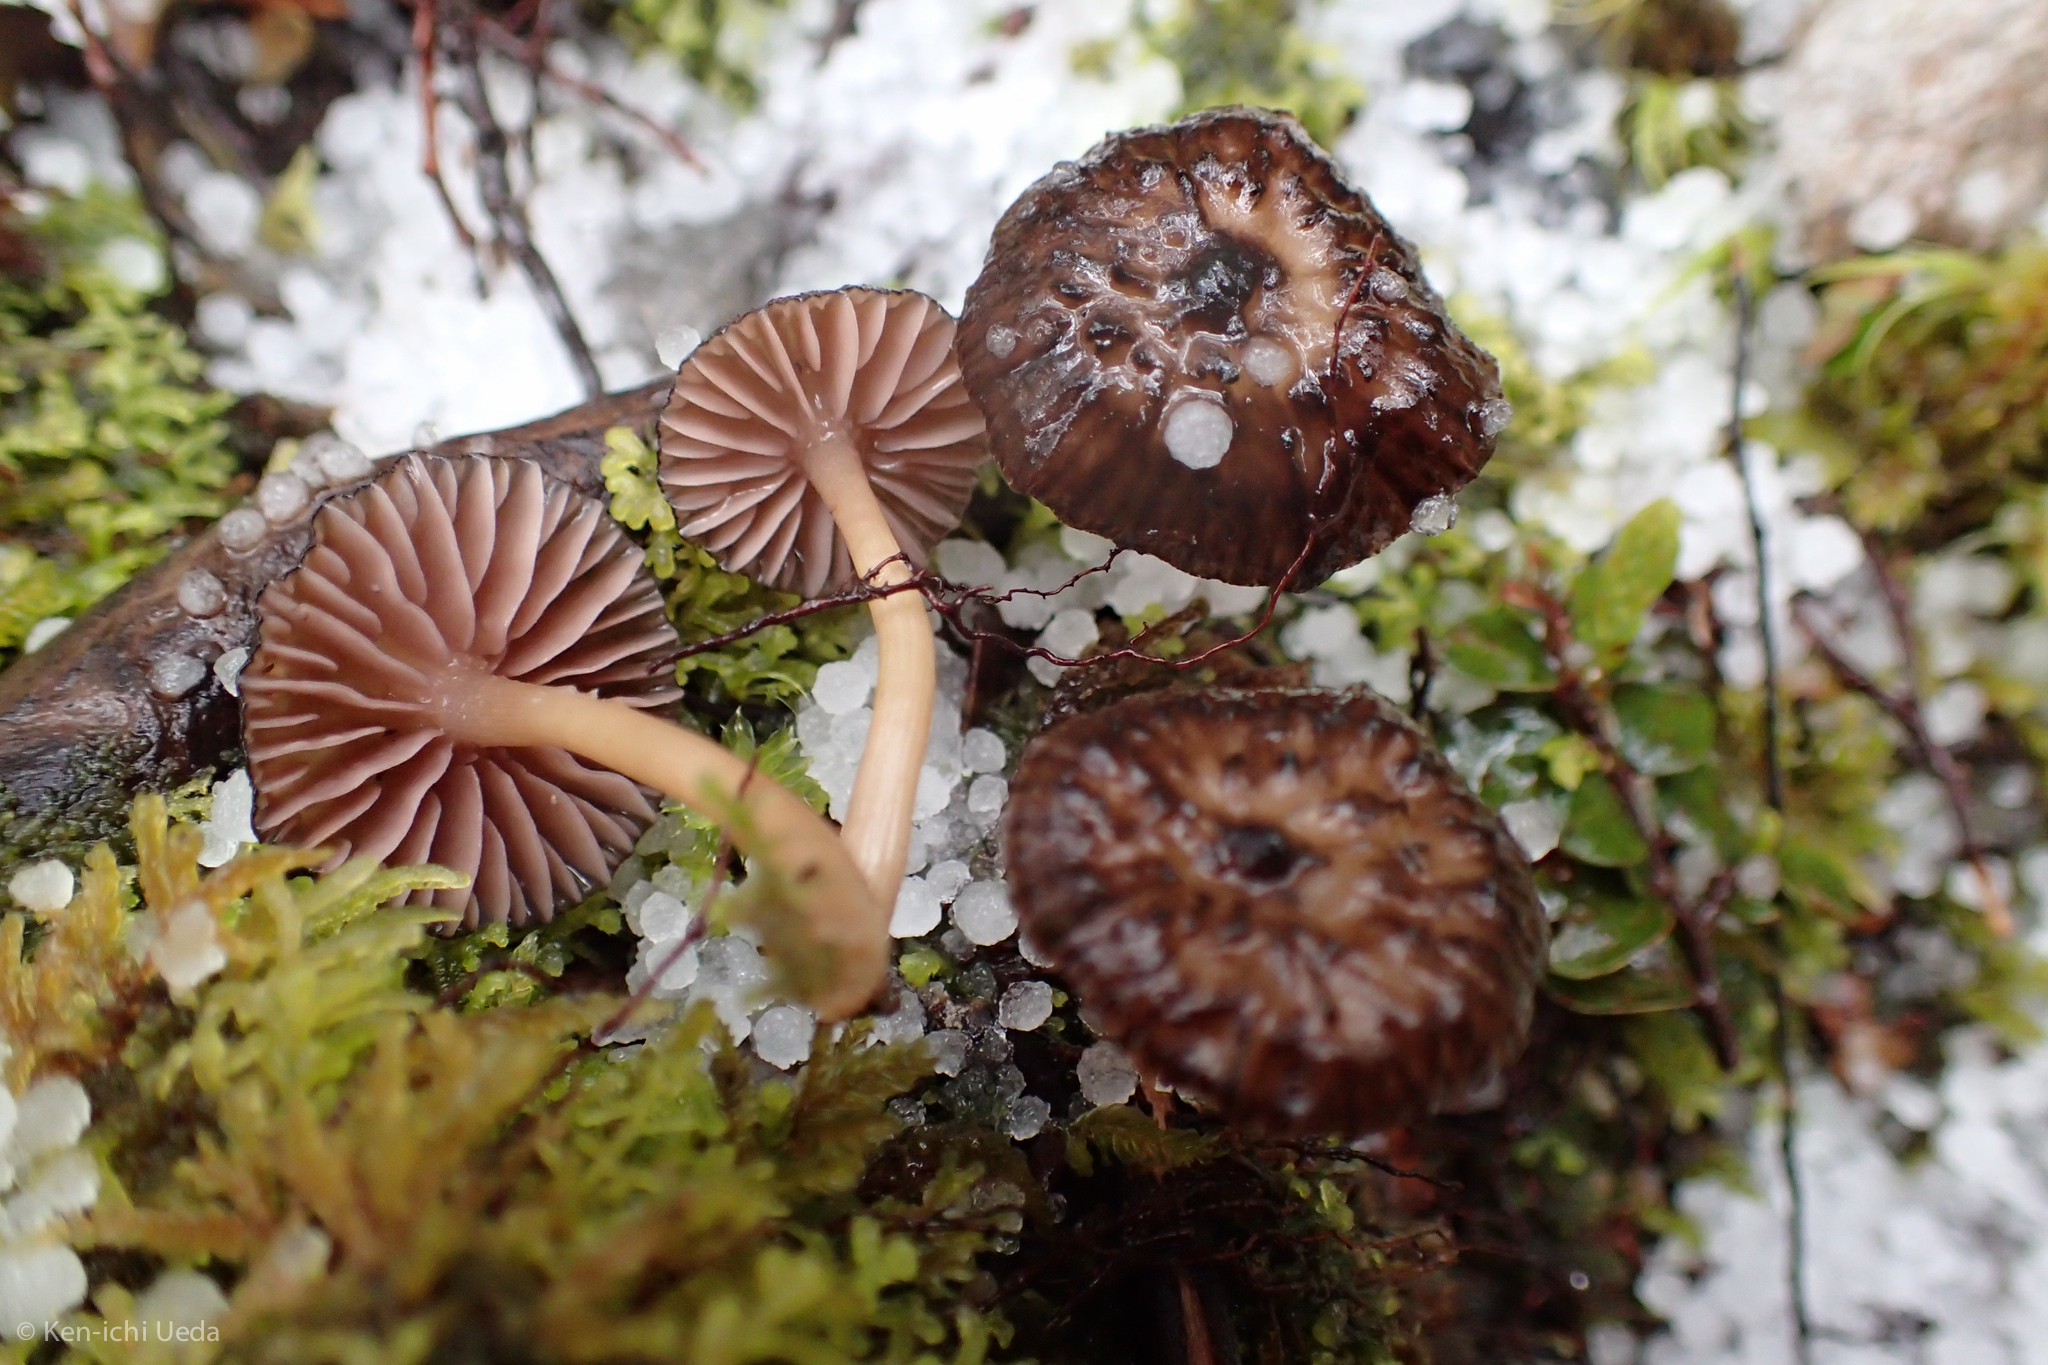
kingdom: Fungi
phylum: Basidiomycota
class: Agaricomycetes
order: Agaricales
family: Hydnangiaceae
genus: Laccaria
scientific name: Laccaria fibrillosa
